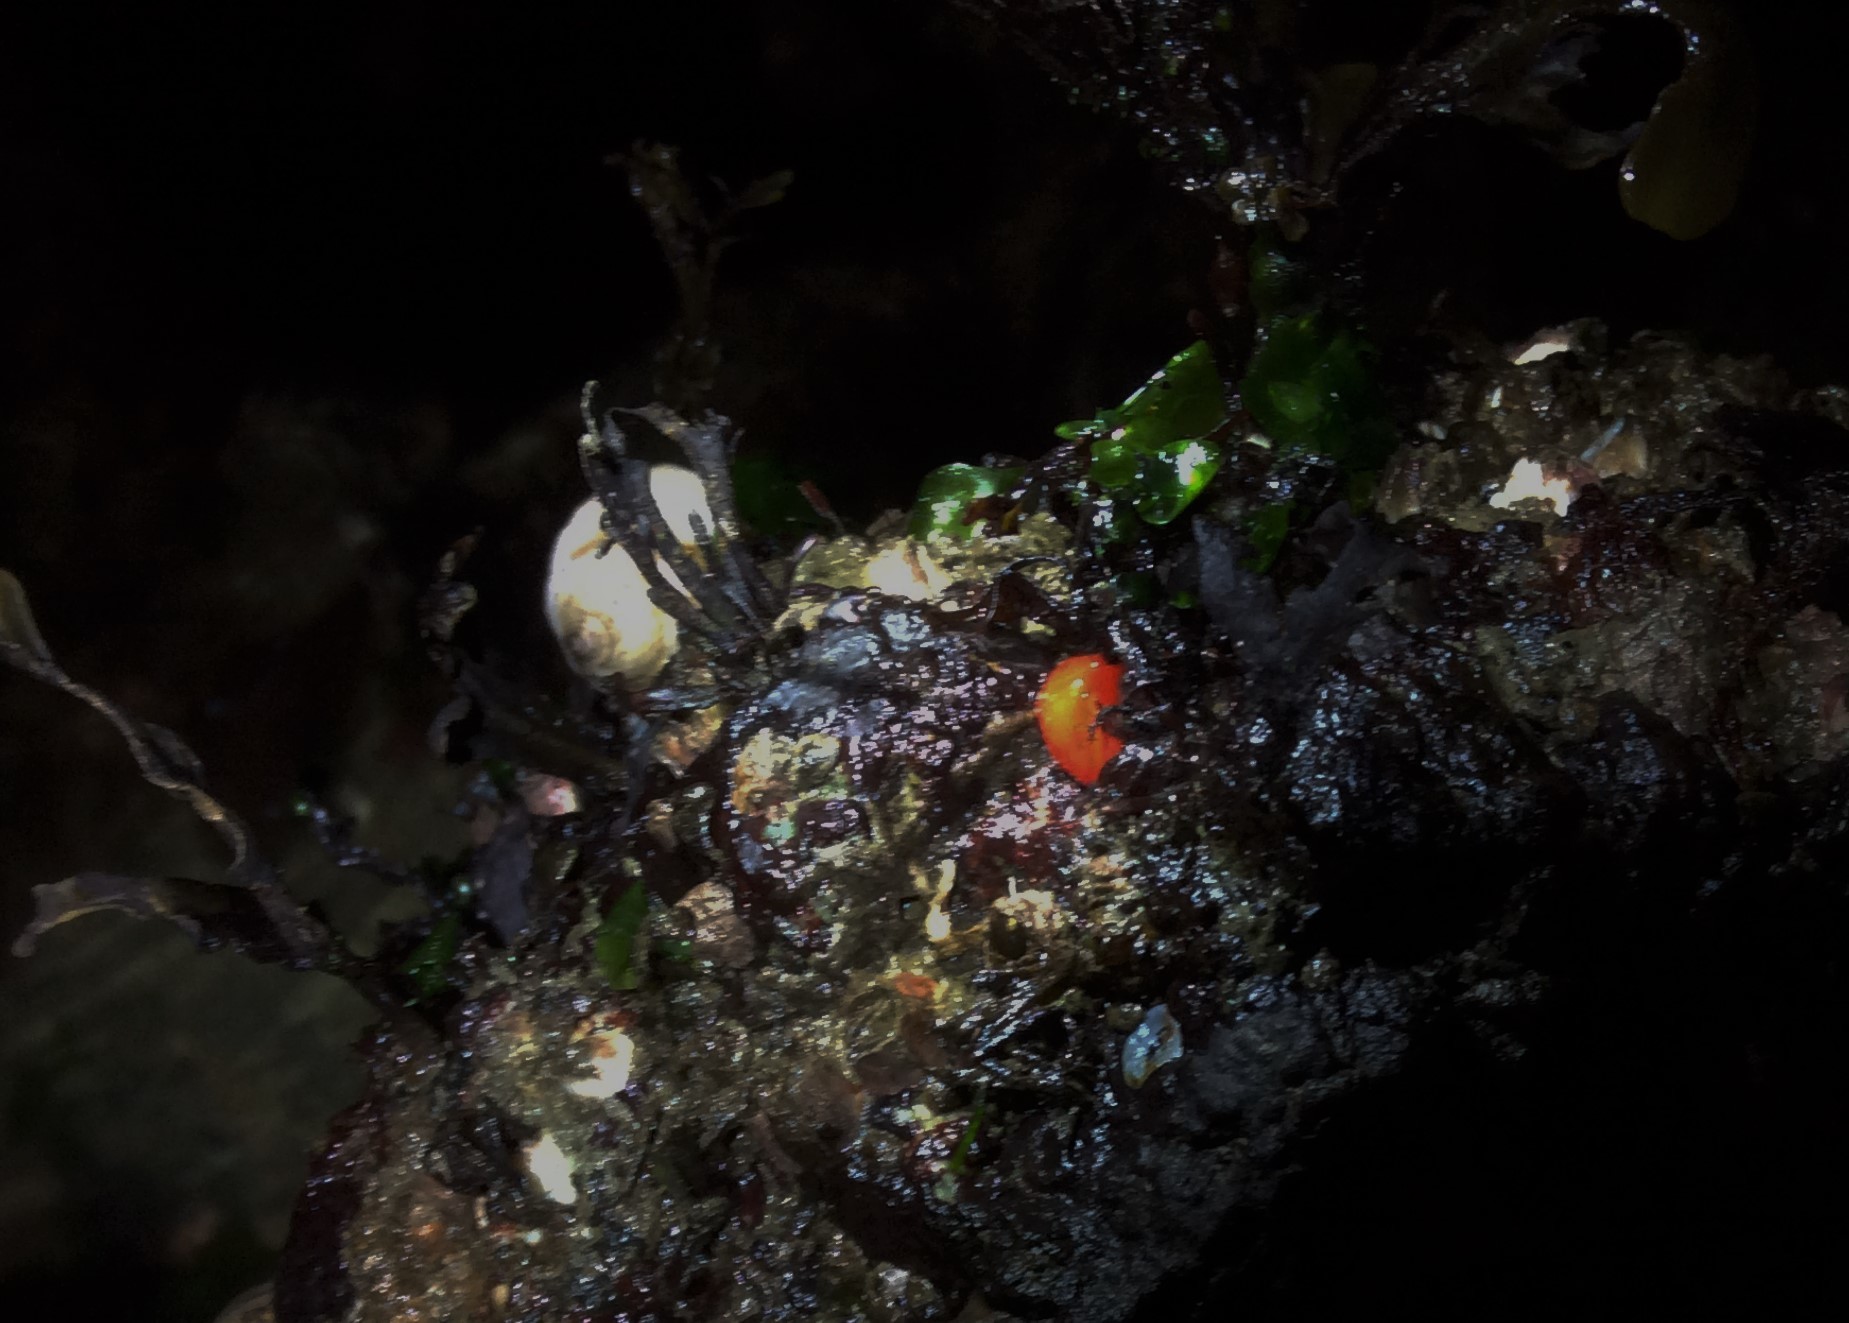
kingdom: Animalia
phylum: Mollusca
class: Gastropoda
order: Nudibranchia
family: Discodorididae
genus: Rostanga
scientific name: Rostanga pulchra
